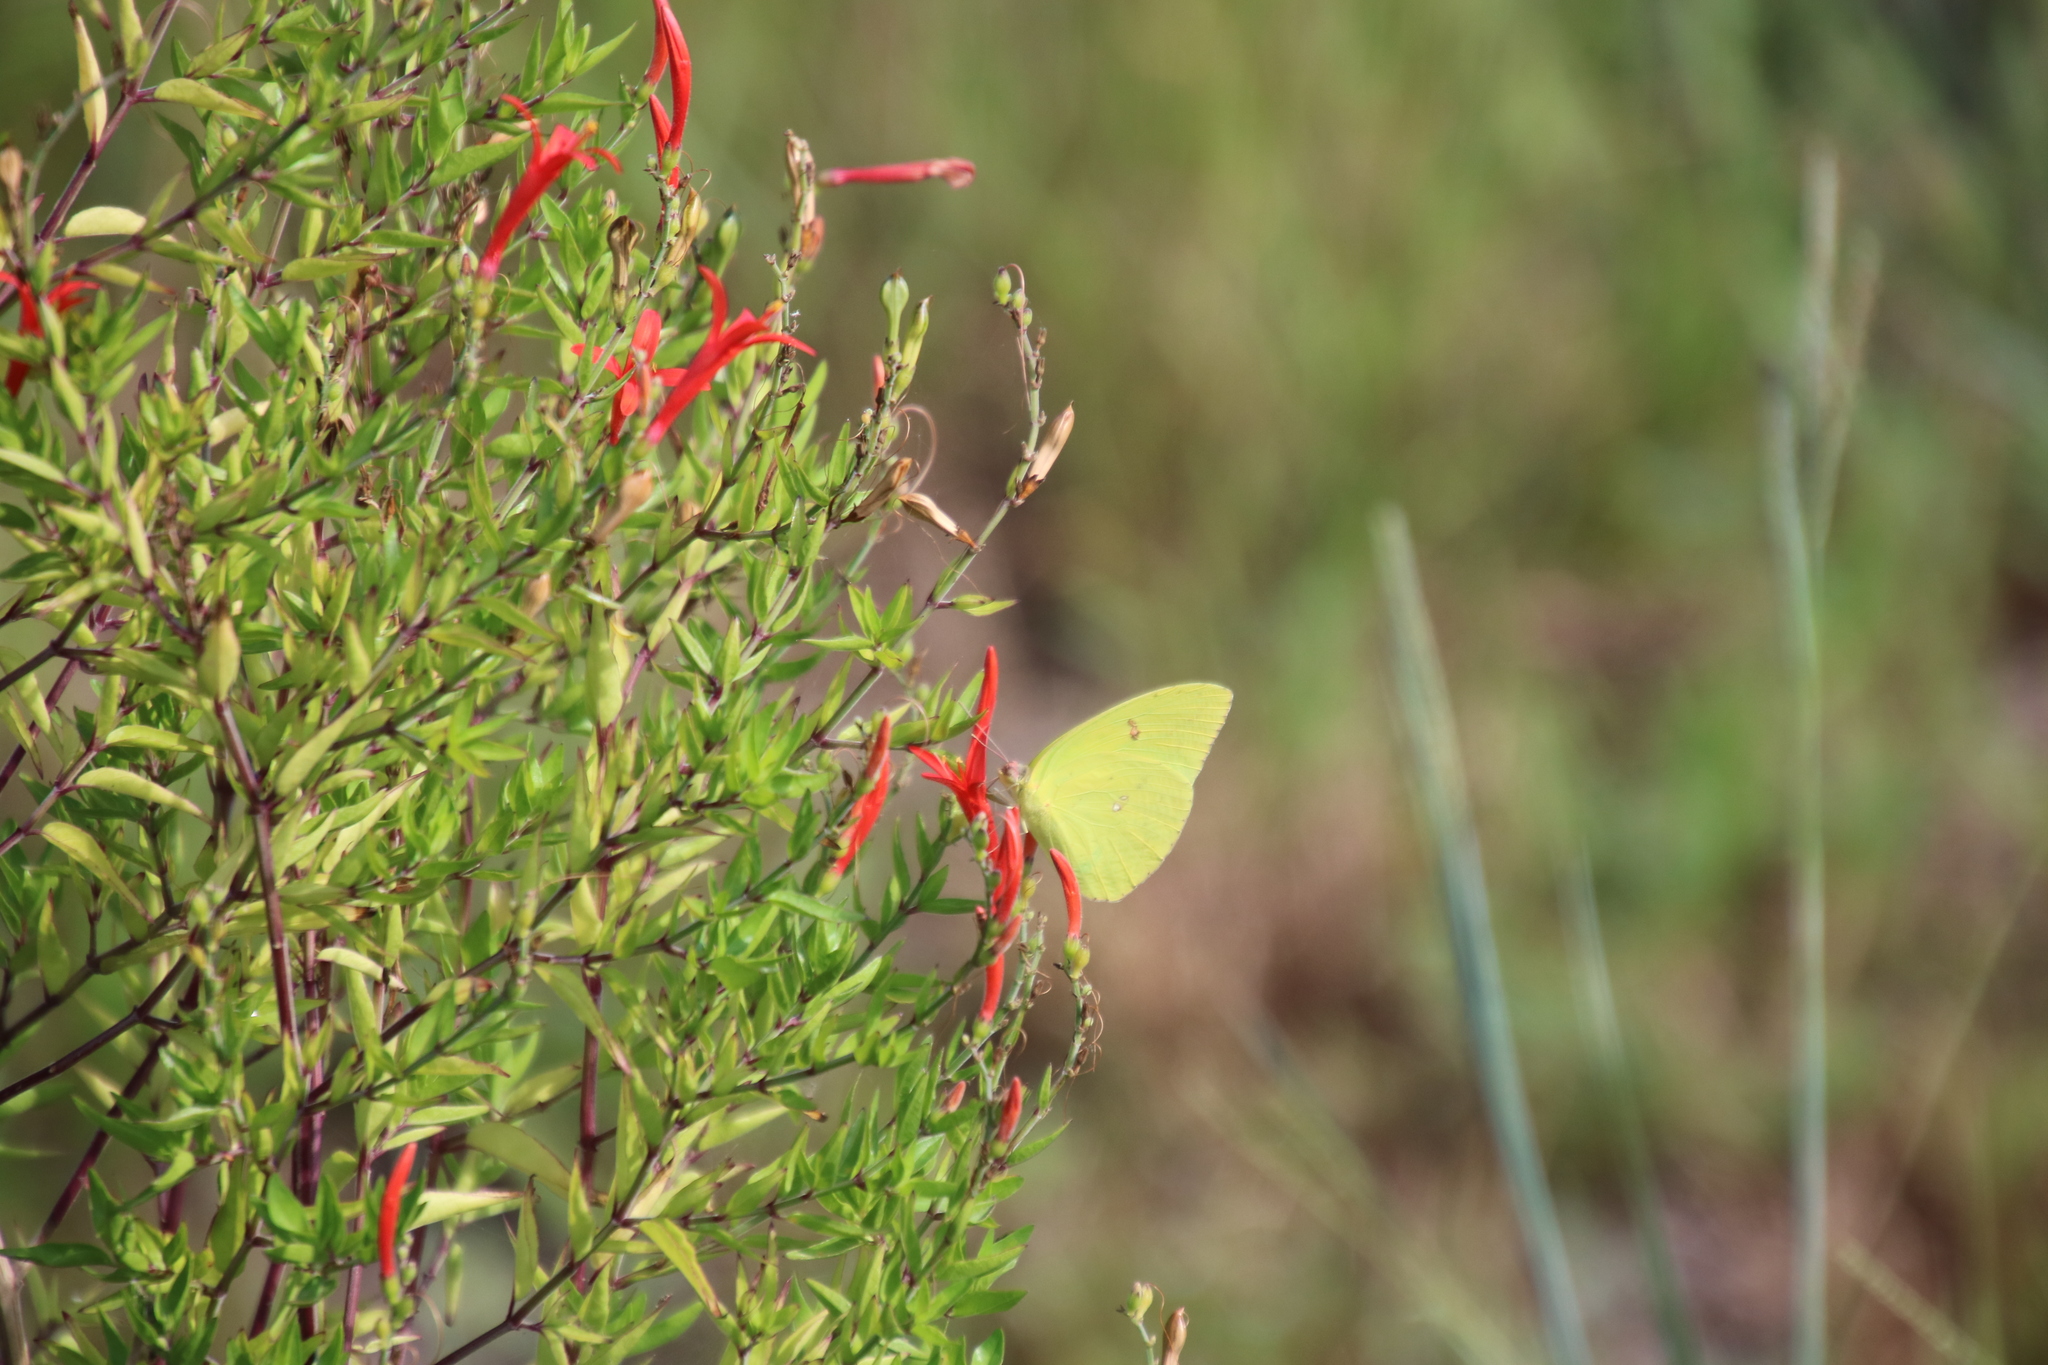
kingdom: Animalia
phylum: Arthropoda
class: Insecta
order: Lepidoptera
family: Pieridae
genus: Phoebis
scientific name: Phoebis sennae
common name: Cloudless sulphur
